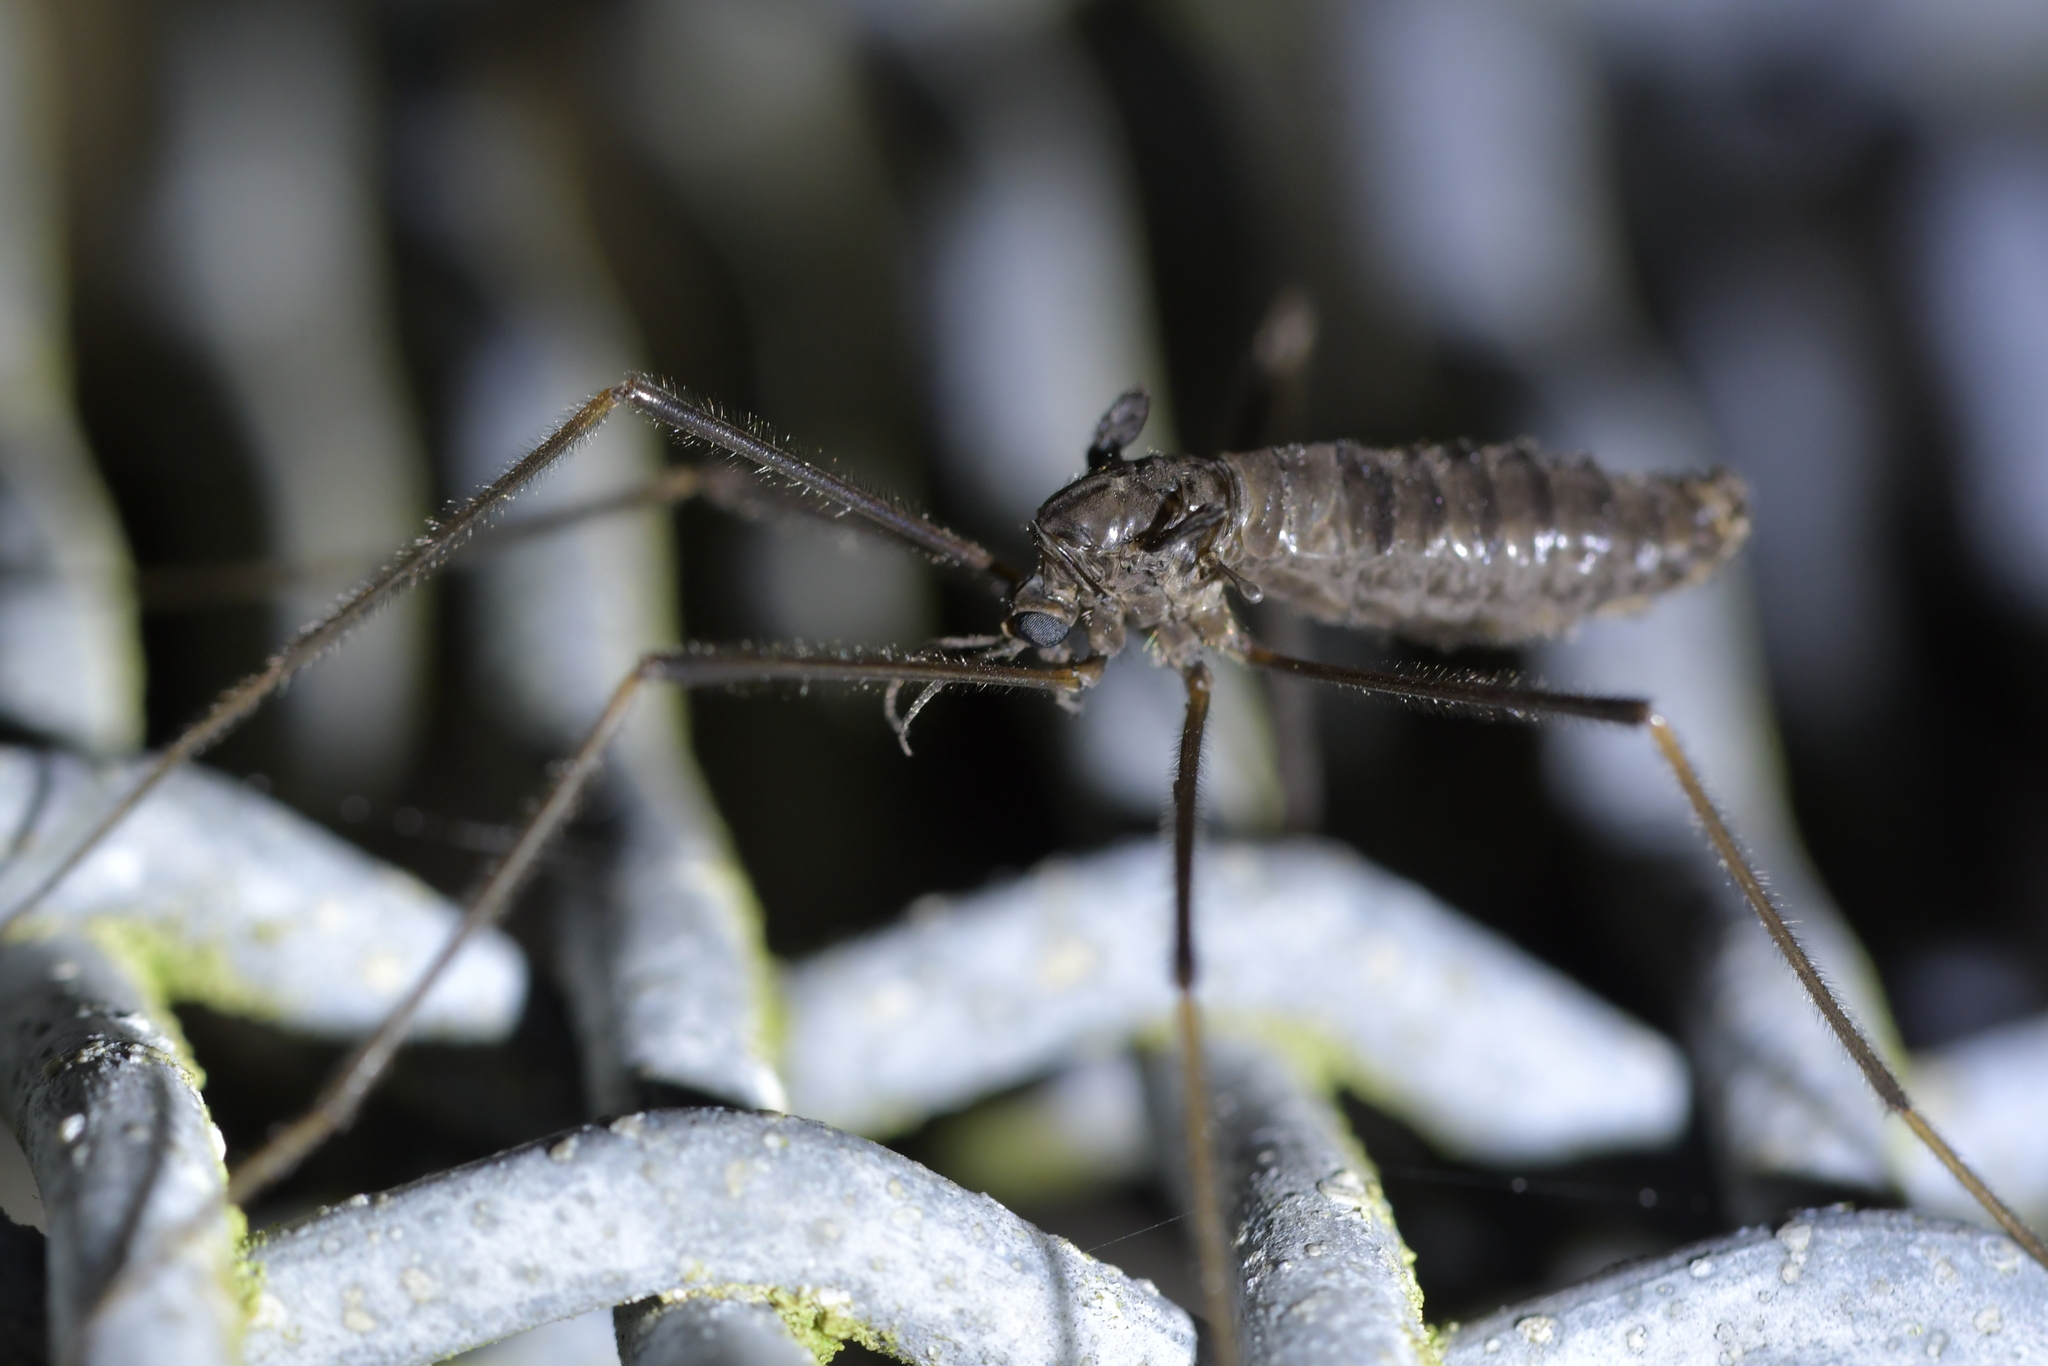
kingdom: Animalia
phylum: Arthropoda
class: Insecta
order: Diptera
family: Tipulidae
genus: Leptotarsus
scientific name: Leptotarsus binotatus
